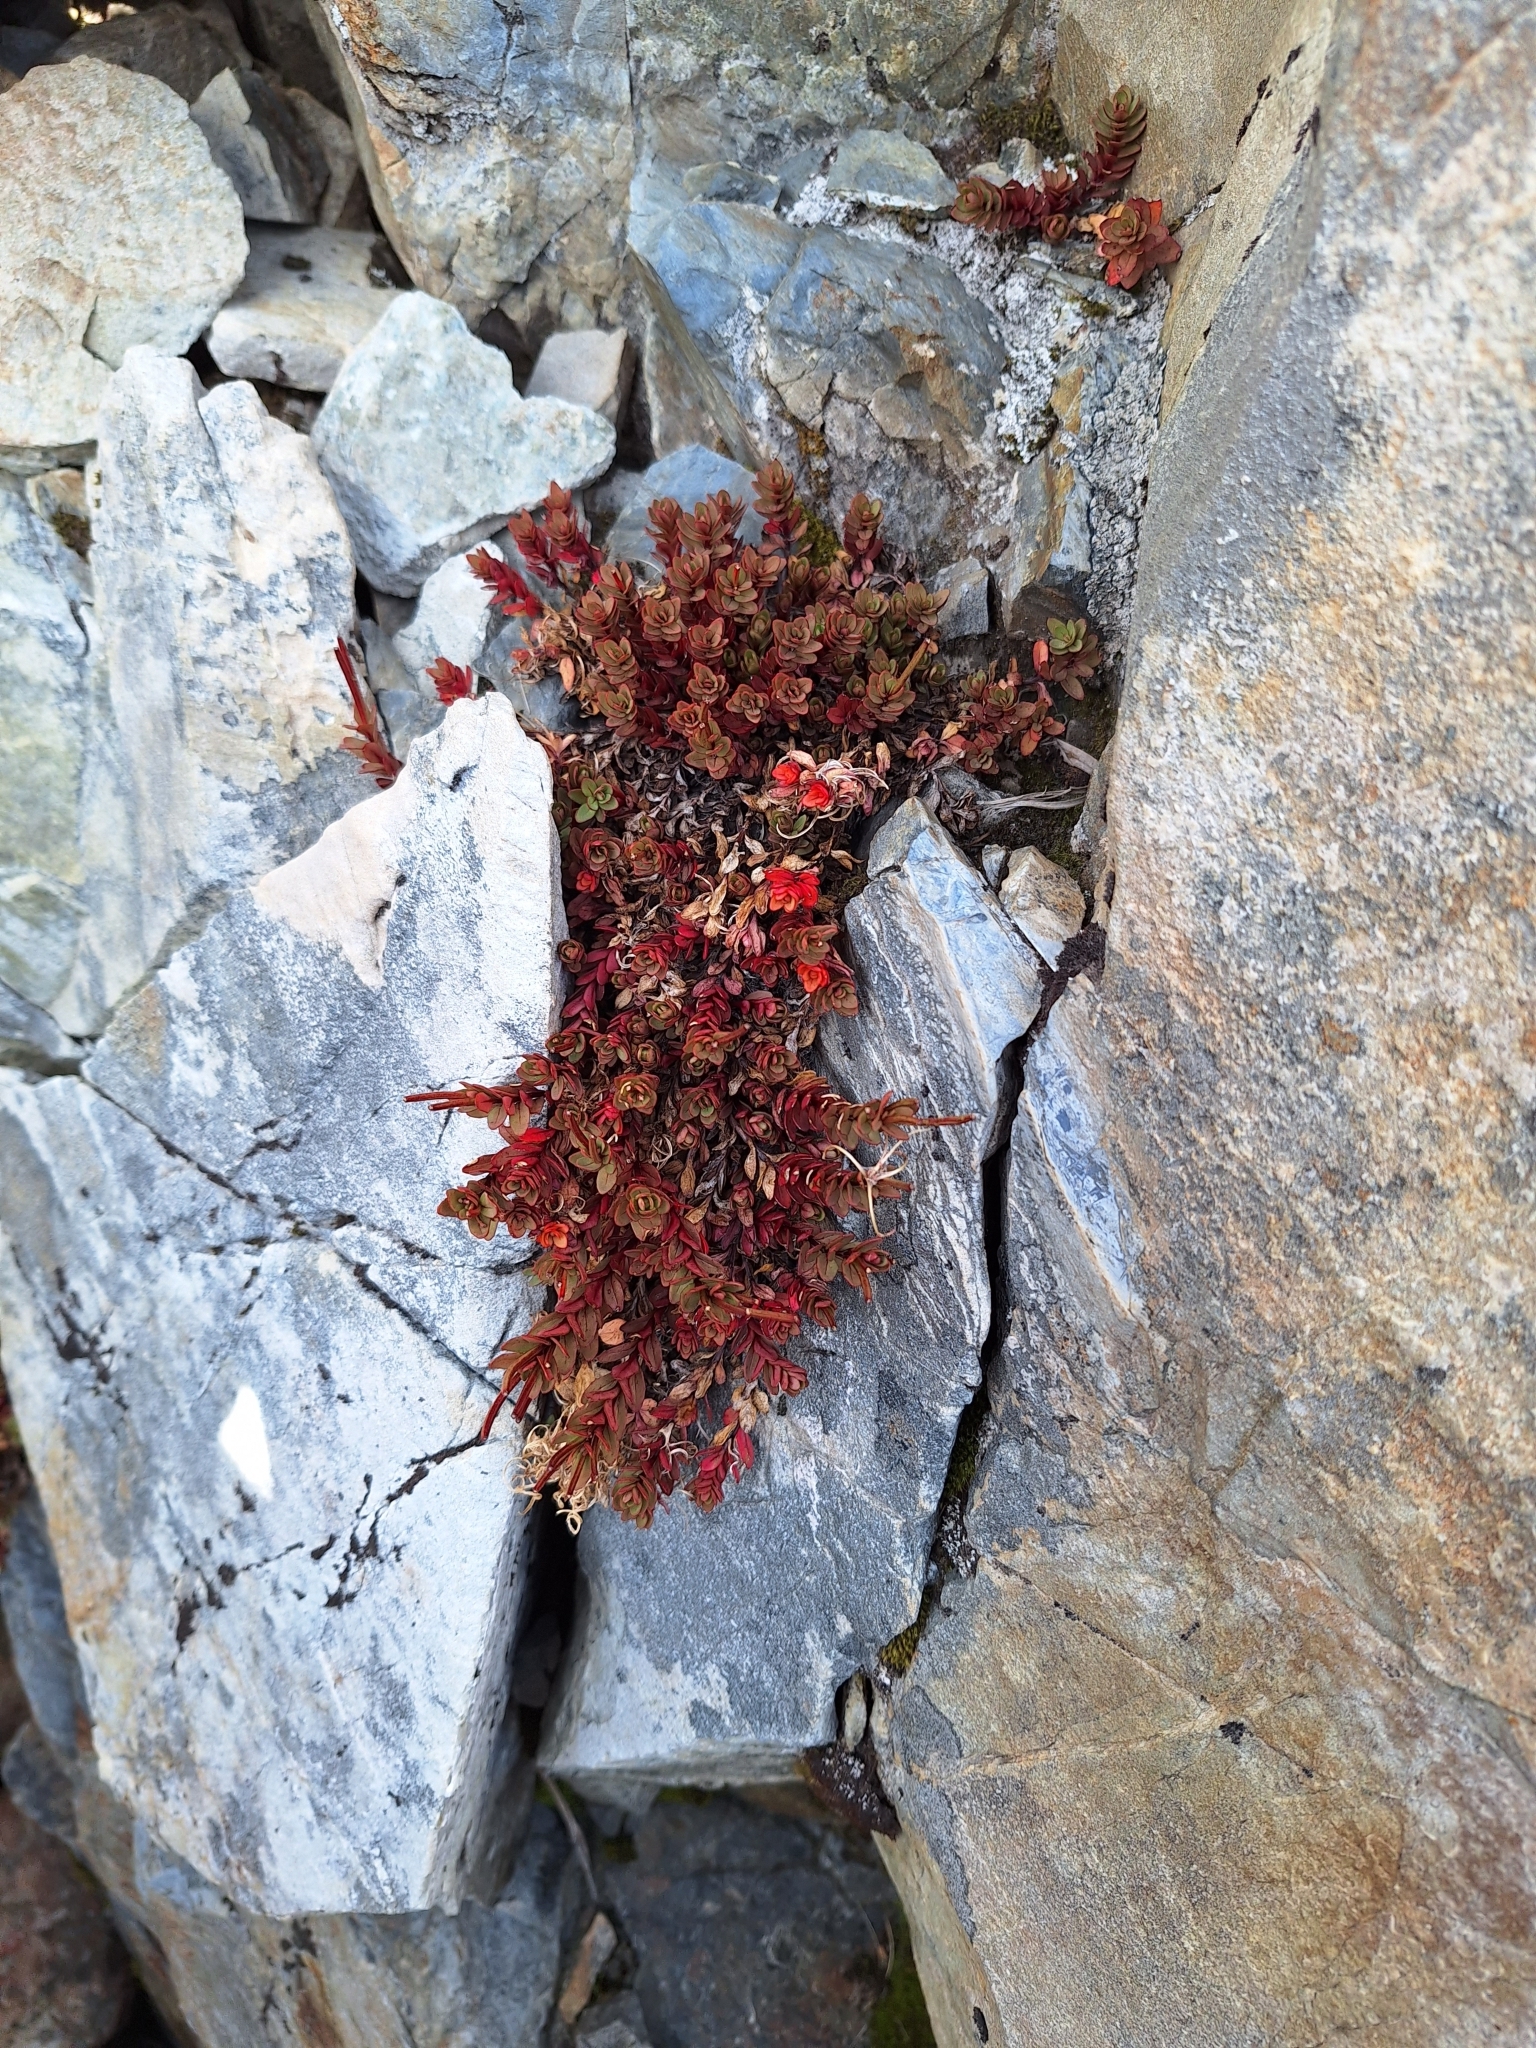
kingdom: Plantae
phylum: Tracheophyta
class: Magnoliopsida
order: Myrtales
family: Onagraceae
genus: Epilobium
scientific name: Epilobium porphyrium
